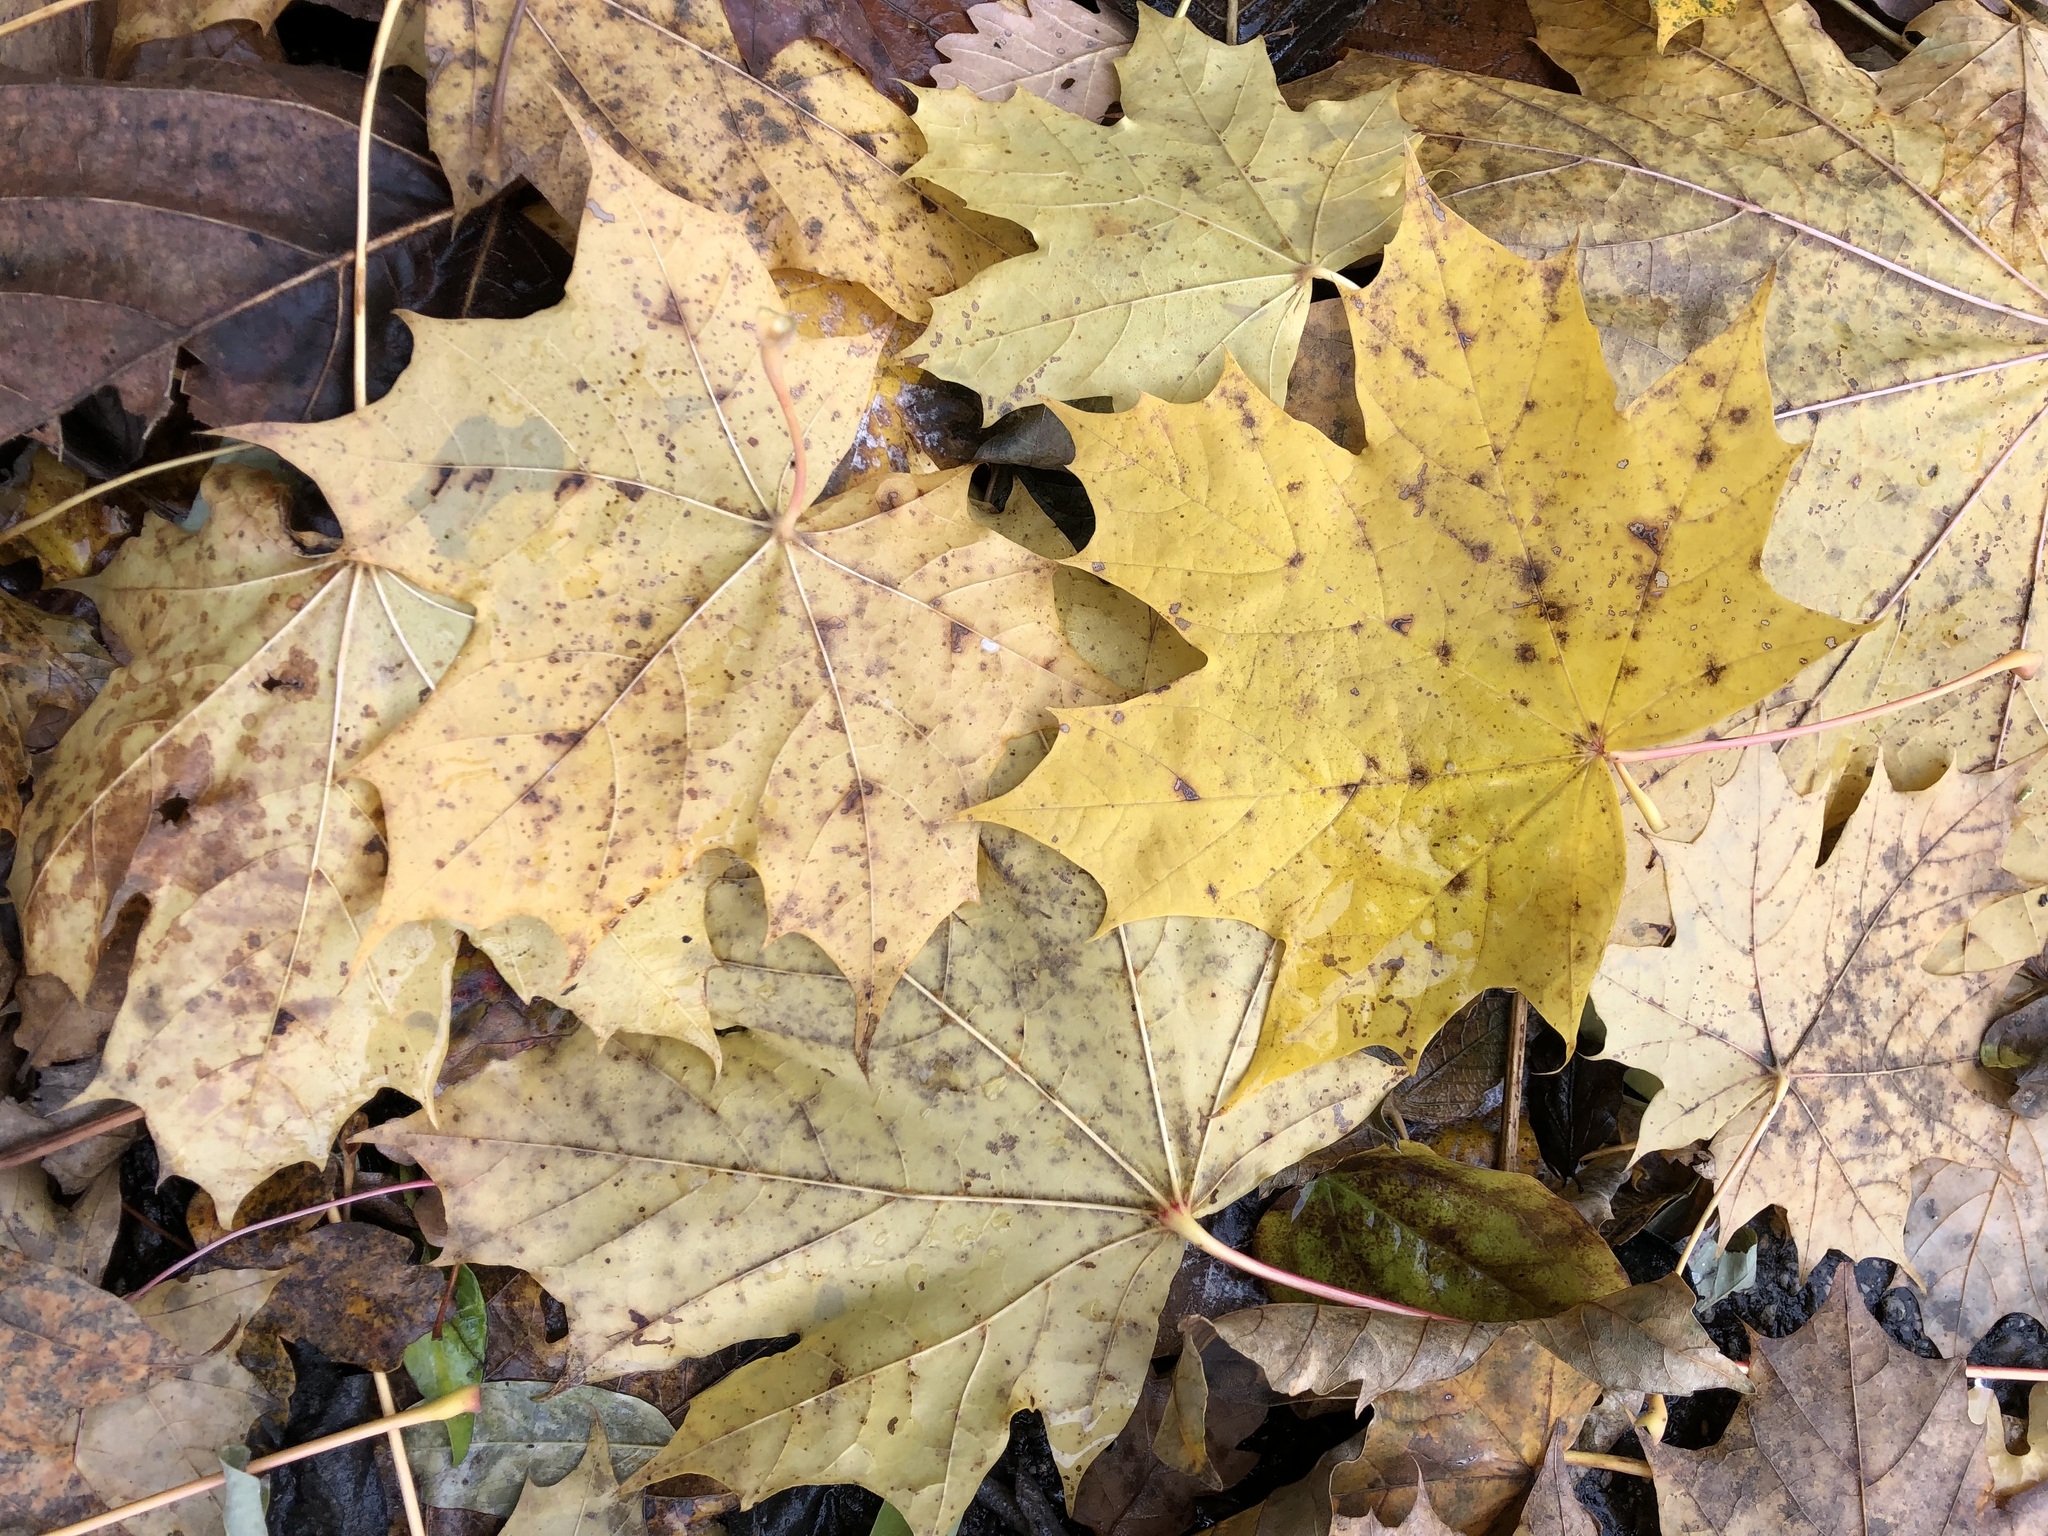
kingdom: Plantae
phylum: Tracheophyta
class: Magnoliopsida
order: Sapindales
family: Sapindaceae
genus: Acer
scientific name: Acer platanoides
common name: Norway maple
